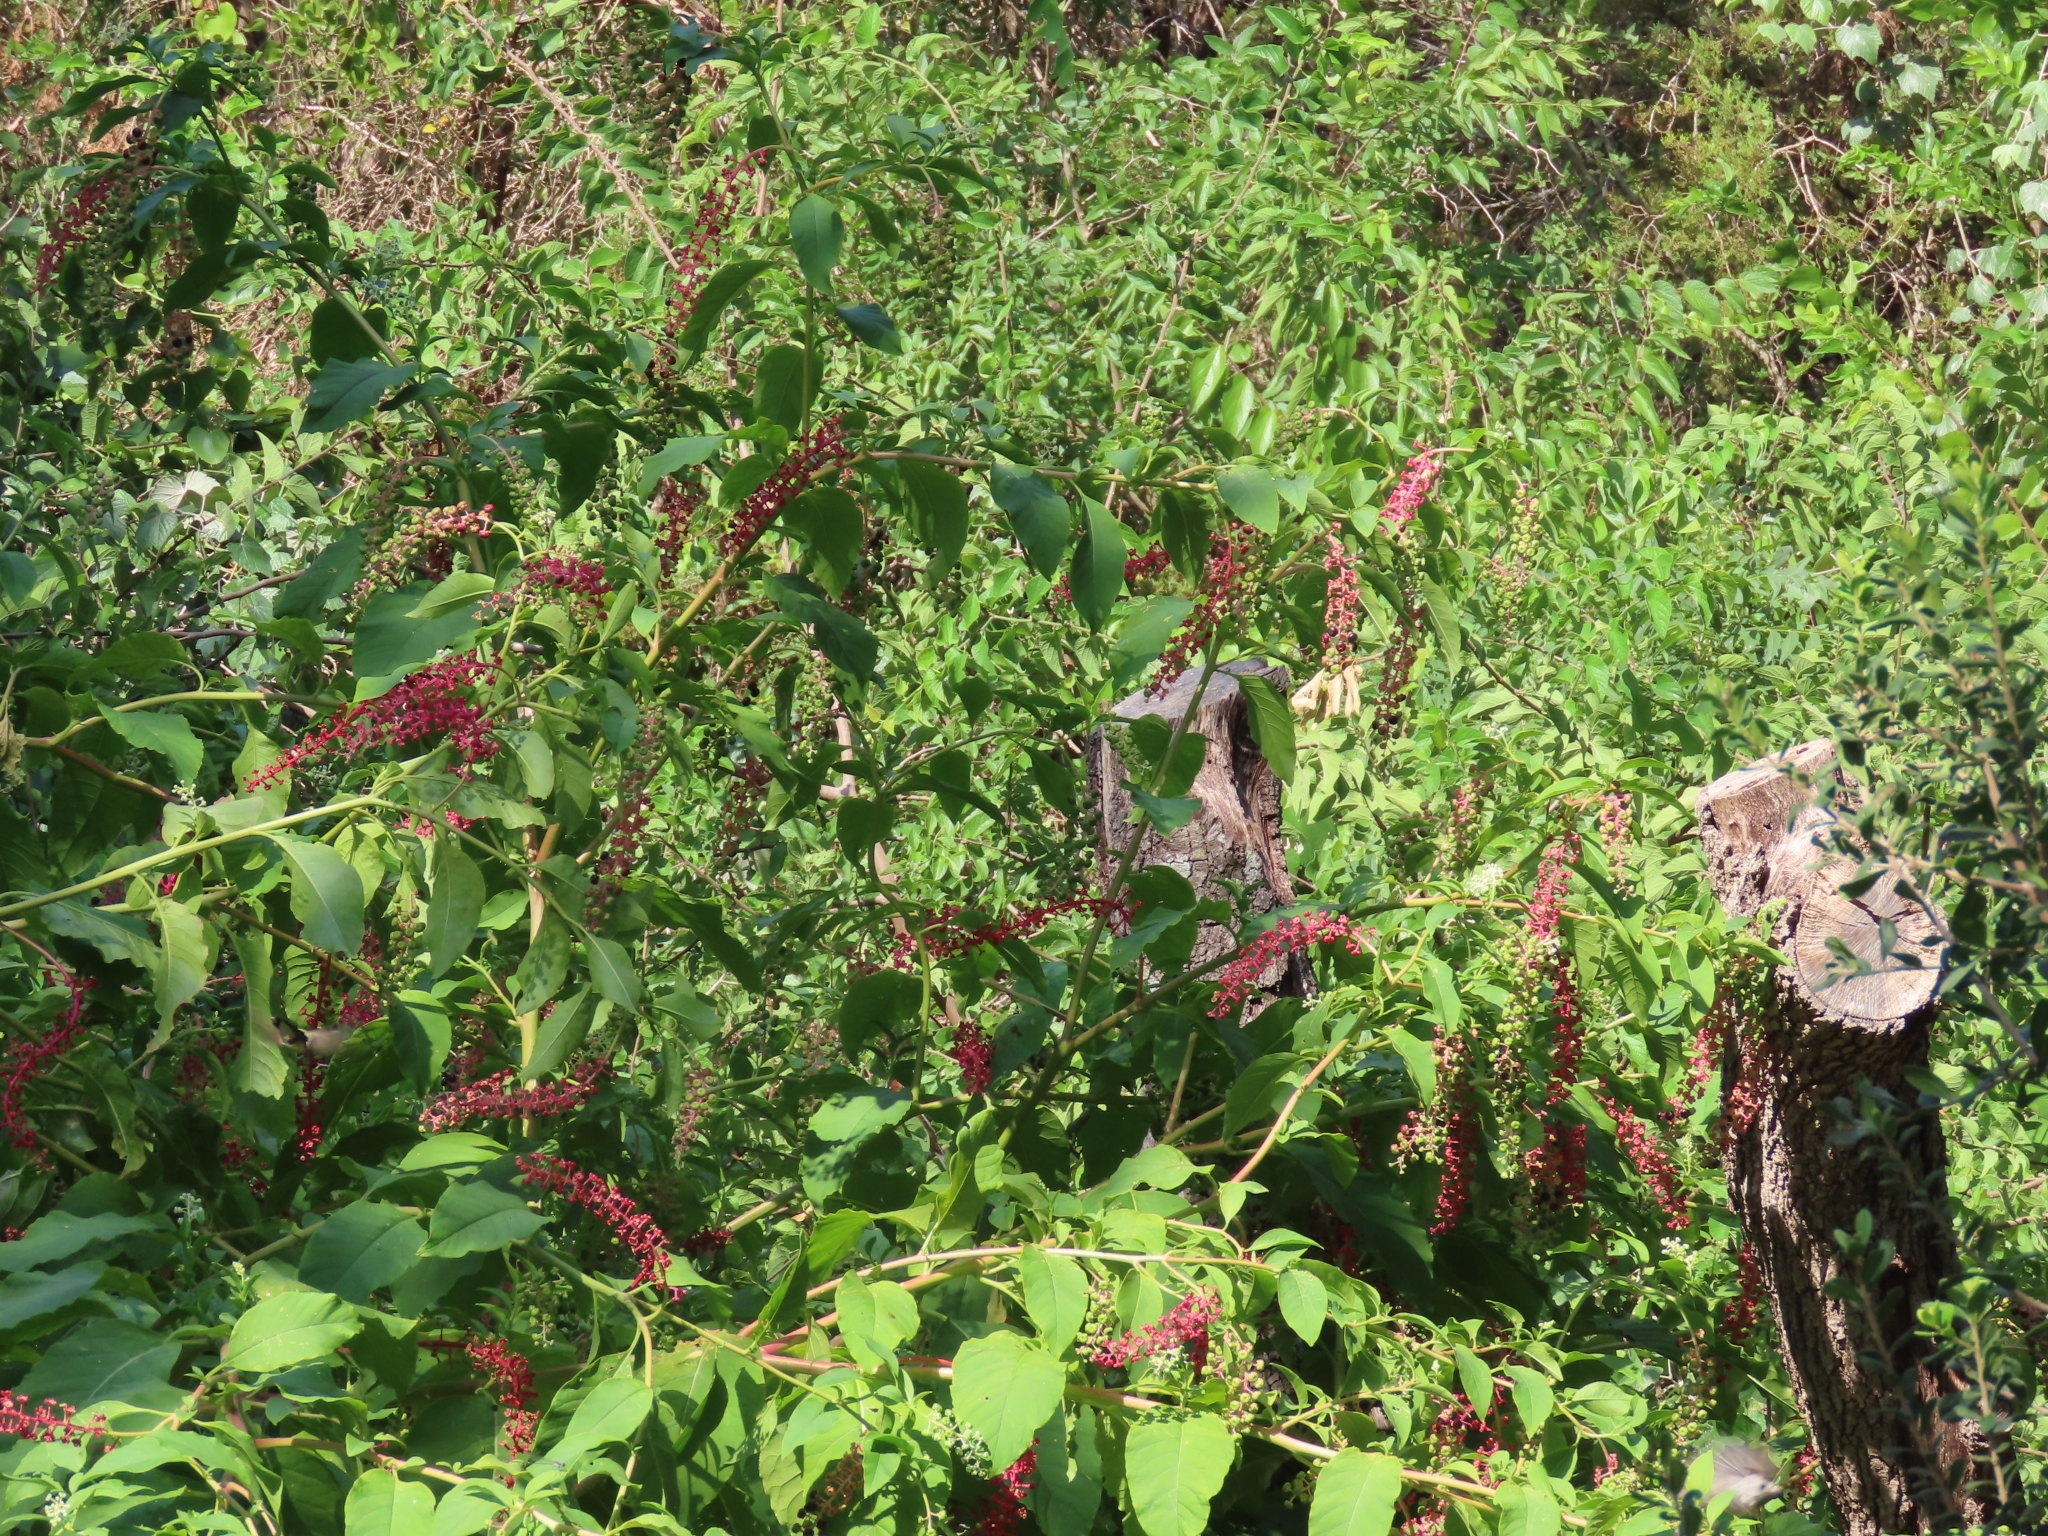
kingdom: Plantae
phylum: Tracheophyta
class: Magnoliopsida
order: Caryophyllales
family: Phytolaccaceae
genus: Phytolacca
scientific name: Phytolacca americana
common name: American pokeweed
